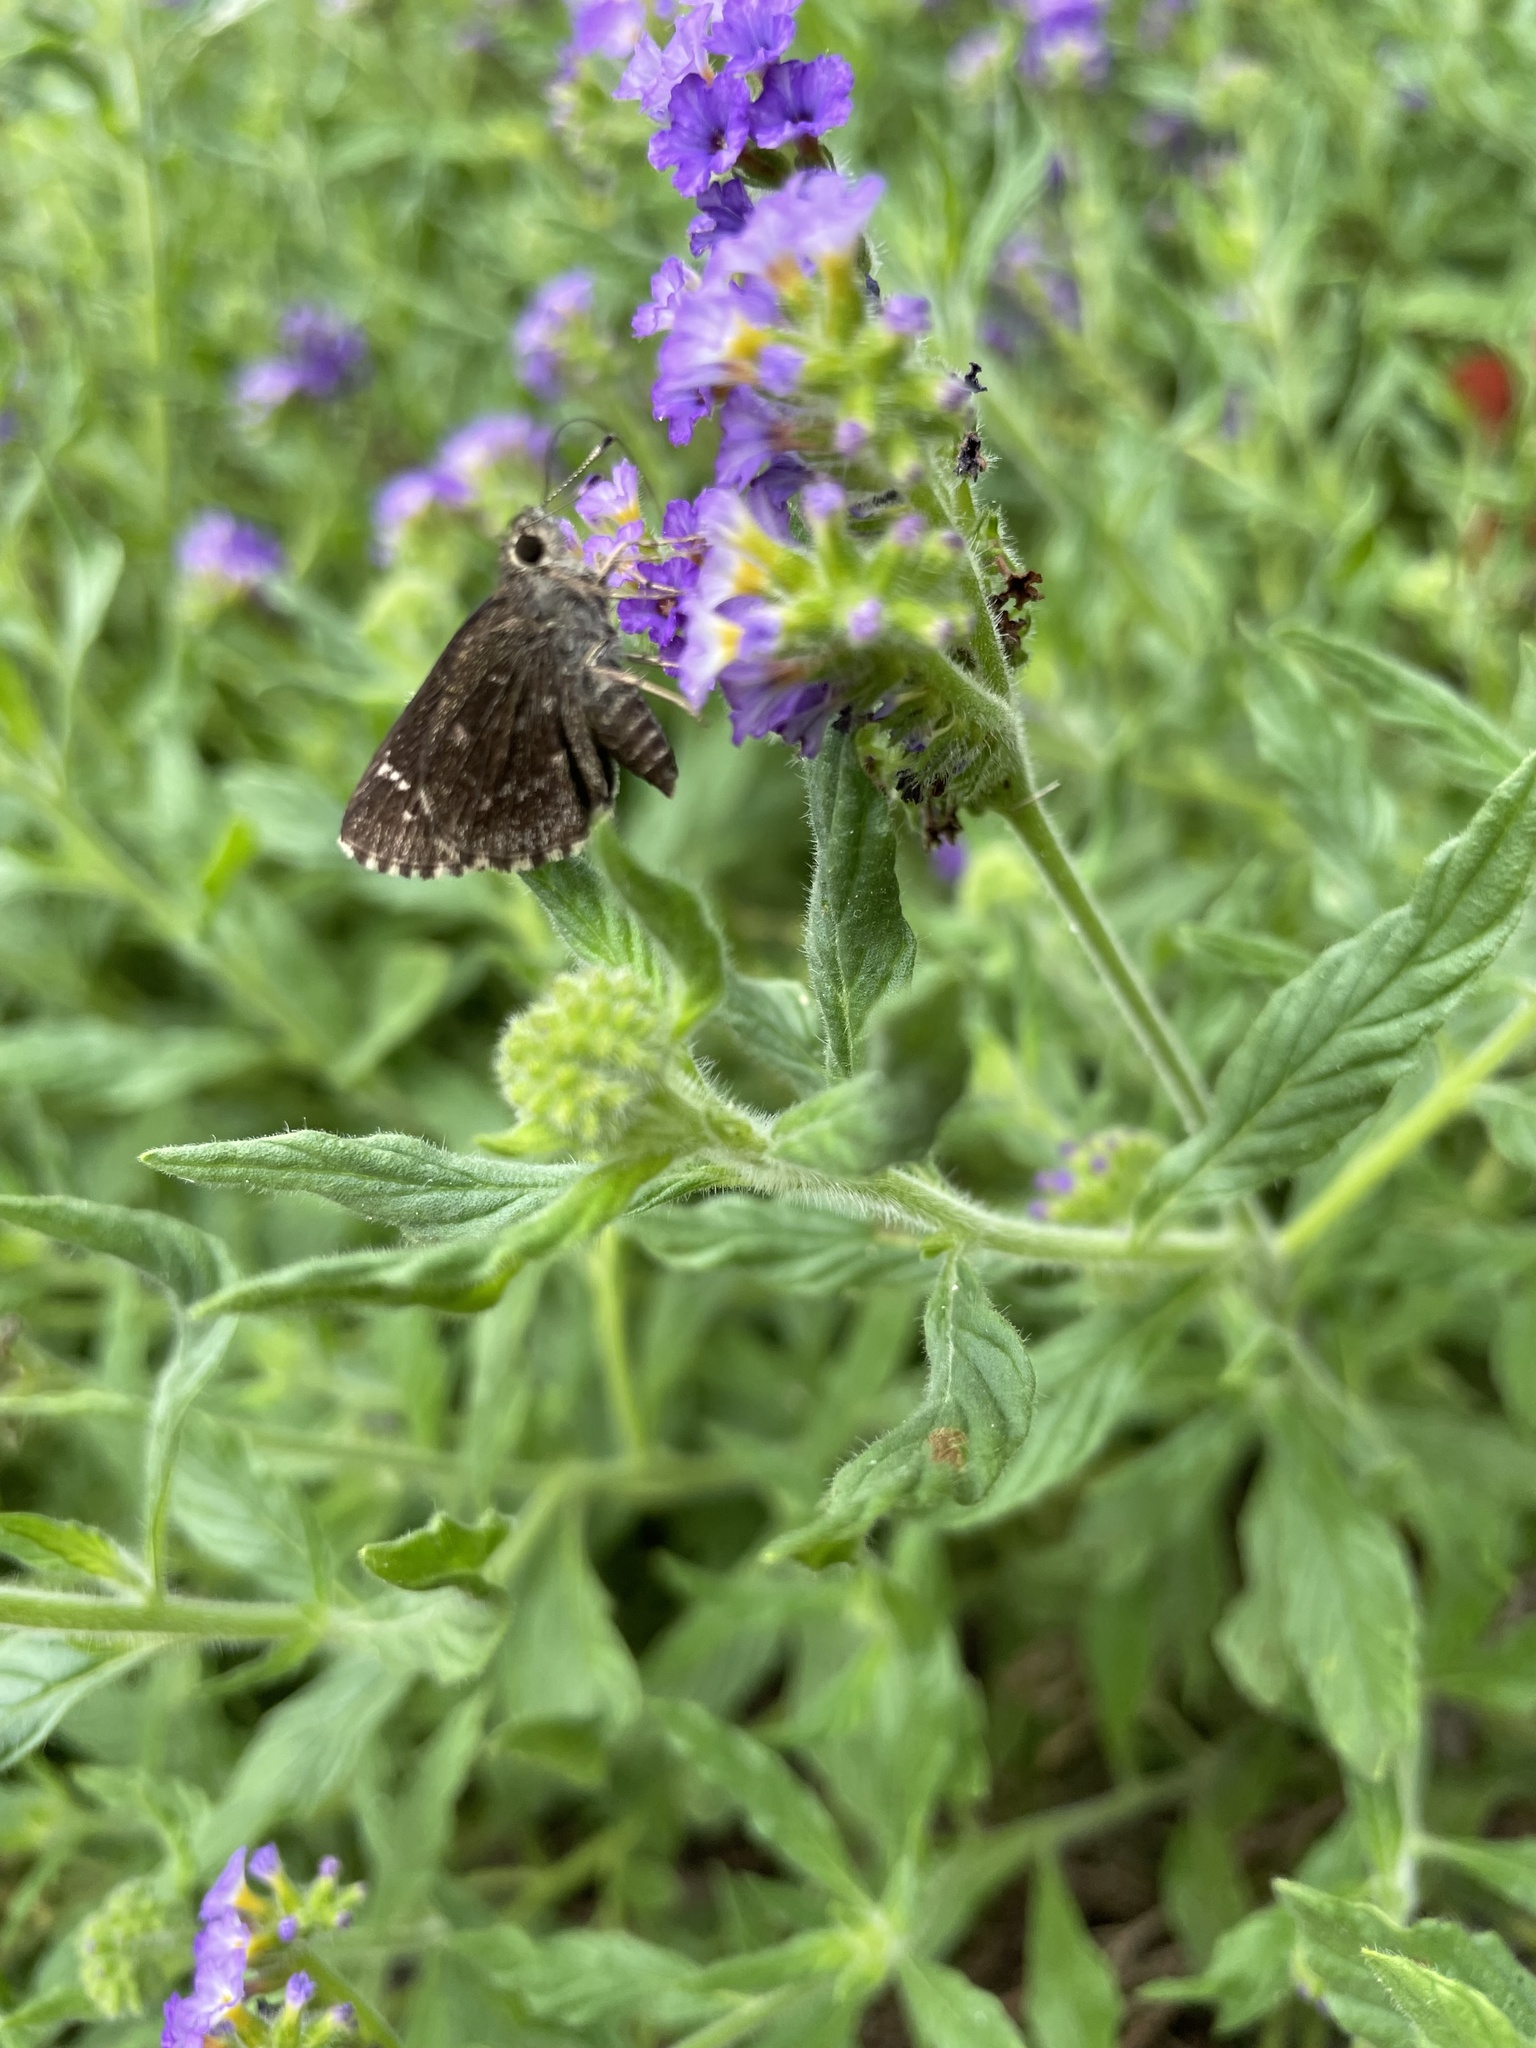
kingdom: Animalia
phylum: Arthropoda
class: Insecta
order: Lepidoptera
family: Hesperiidae
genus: Mastor
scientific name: Mastor celia
